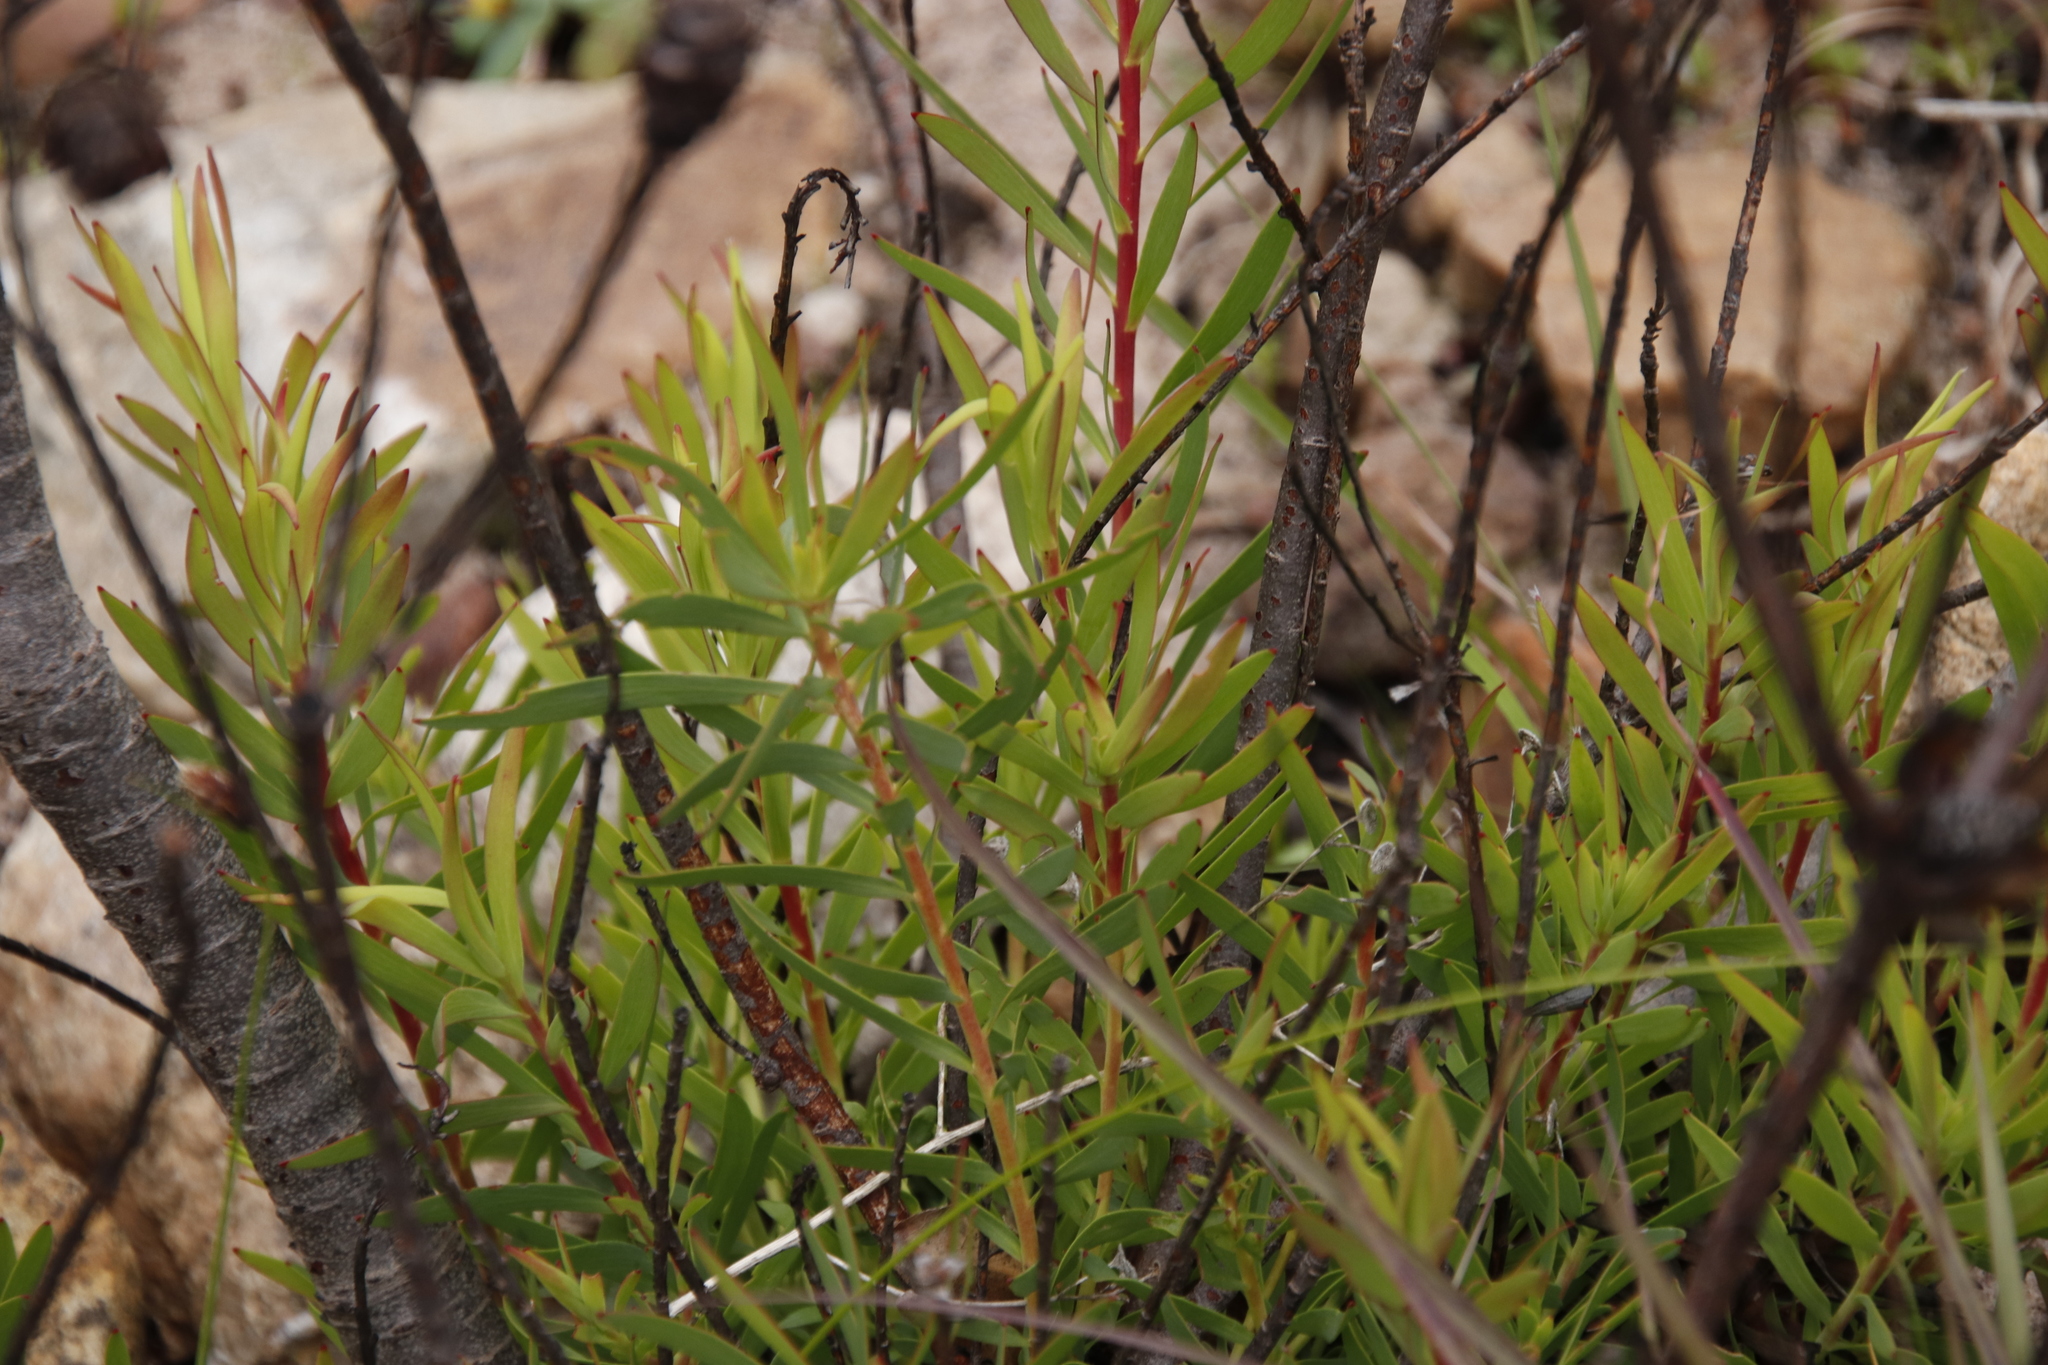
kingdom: Plantae
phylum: Tracheophyta
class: Magnoliopsida
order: Proteales
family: Proteaceae
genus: Leucadendron
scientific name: Leucadendron spissifolium
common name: Spear-leaf conebush
